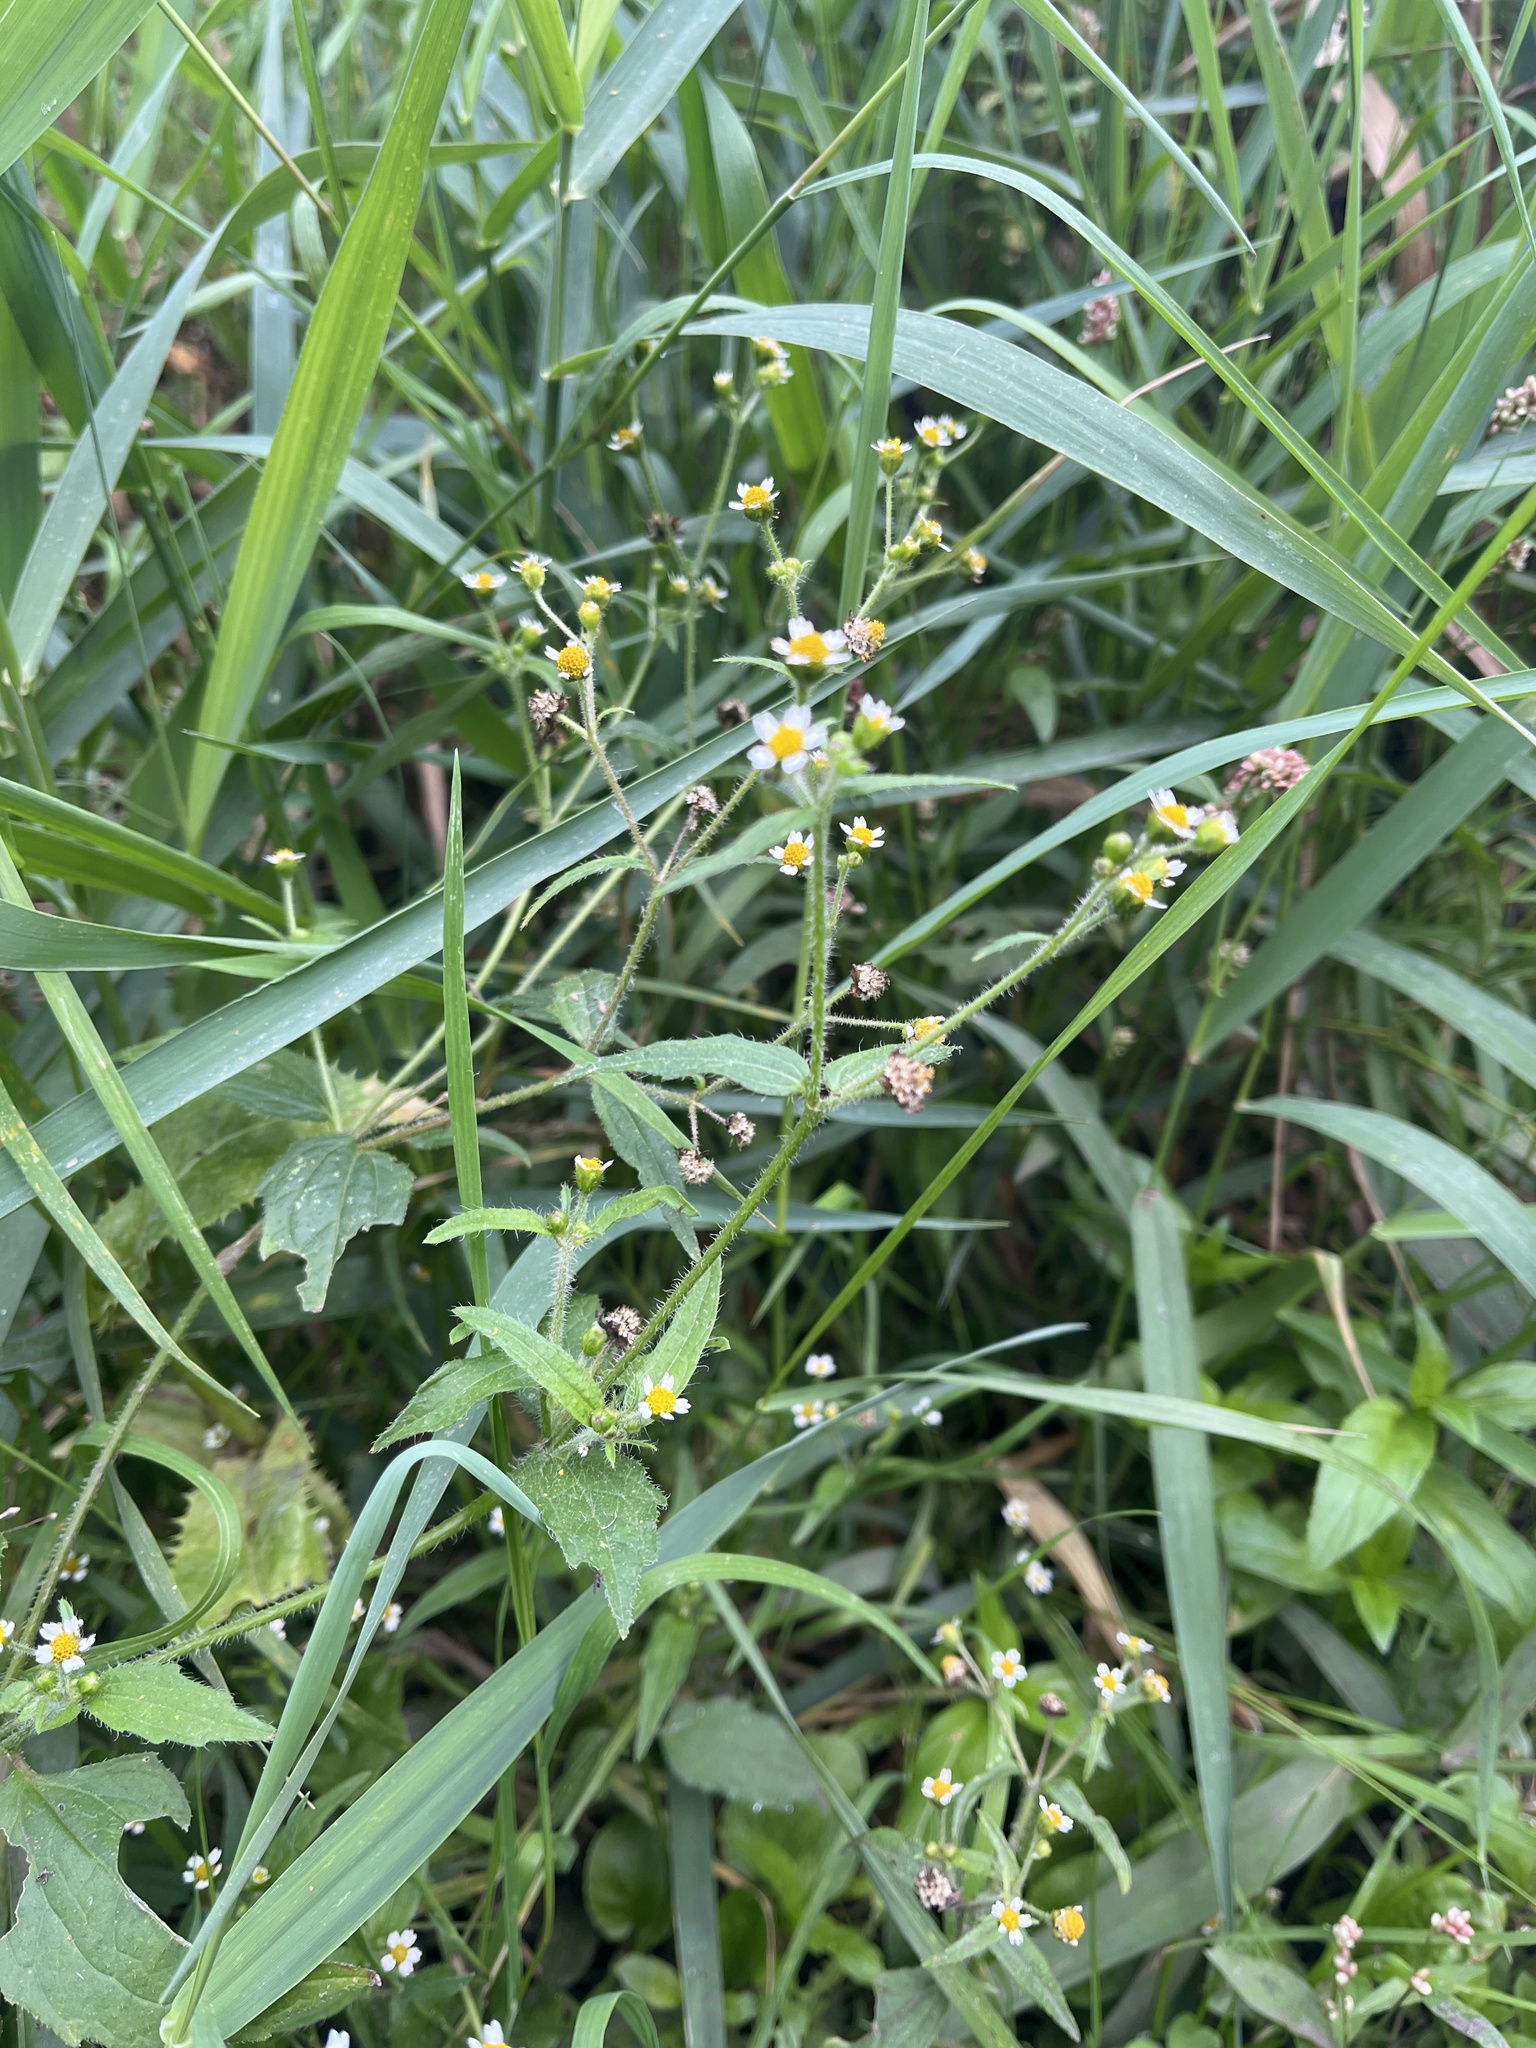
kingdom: Plantae
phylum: Tracheophyta
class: Magnoliopsida
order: Asterales
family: Asteraceae
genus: Galinsoga
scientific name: Galinsoga quadriradiata
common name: Shaggy soldier
